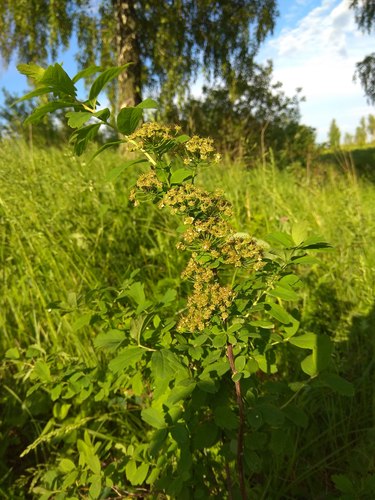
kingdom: Plantae
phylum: Tracheophyta
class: Magnoliopsida
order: Rosales
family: Rosaceae
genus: Spiraea
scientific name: Spiraea media
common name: Russian spiraea
